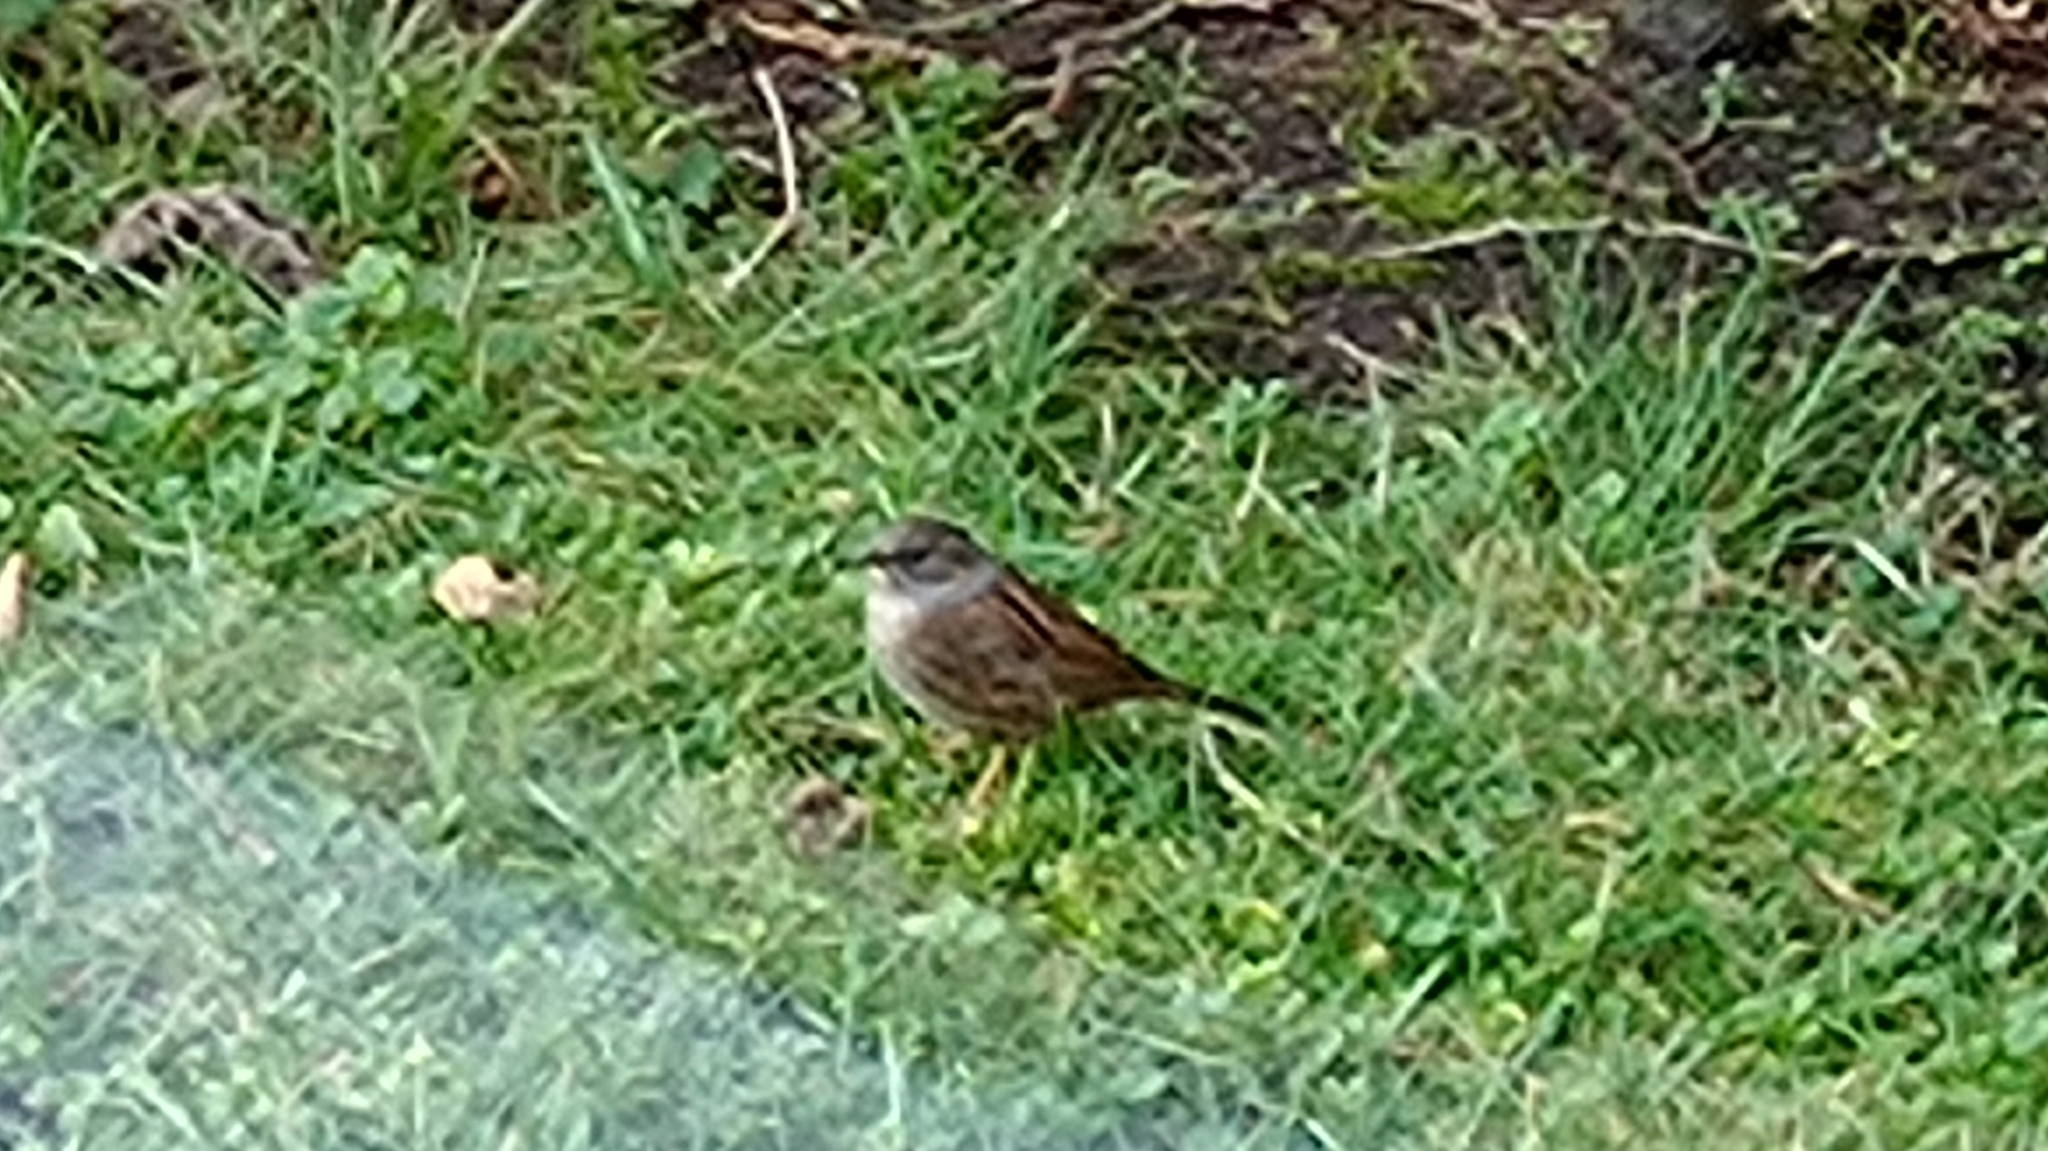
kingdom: Animalia
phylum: Chordata
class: Aves
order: Passeriformes
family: Prunellidae
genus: Prunella
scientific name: Prunella modularis
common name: Dunnock
